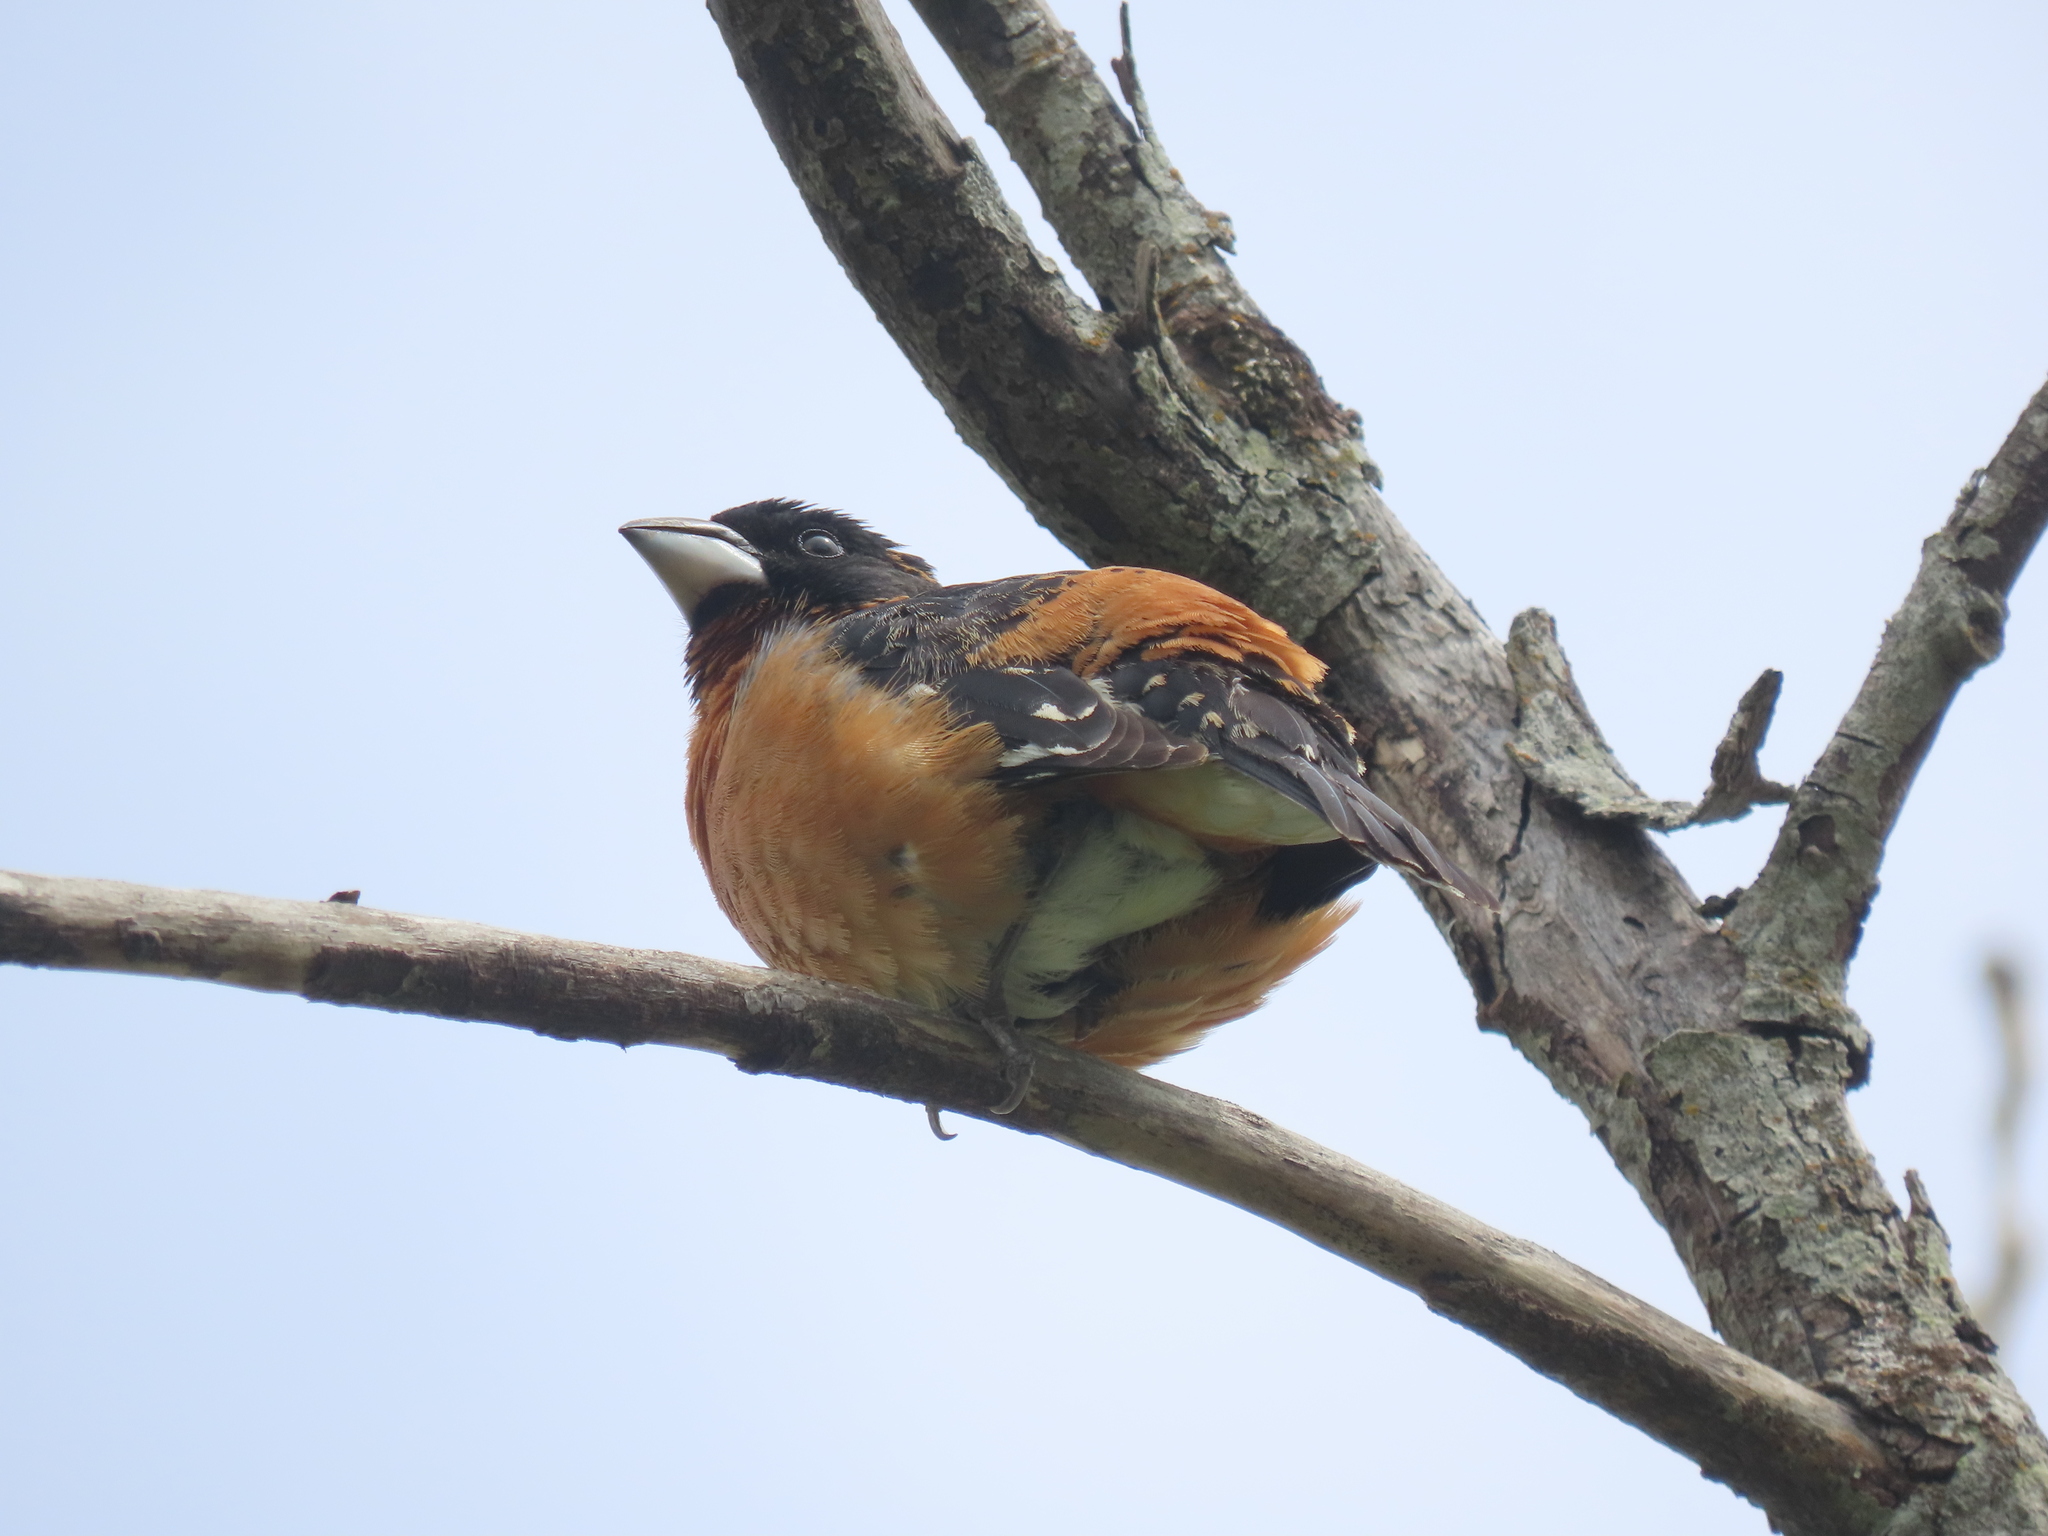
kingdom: Animalia
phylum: Chordata
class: Aves
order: Passeriformes
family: Cardinalidae
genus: Pheucticus
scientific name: Pheucticus melanocephalus
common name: Black-headed grosbeak
